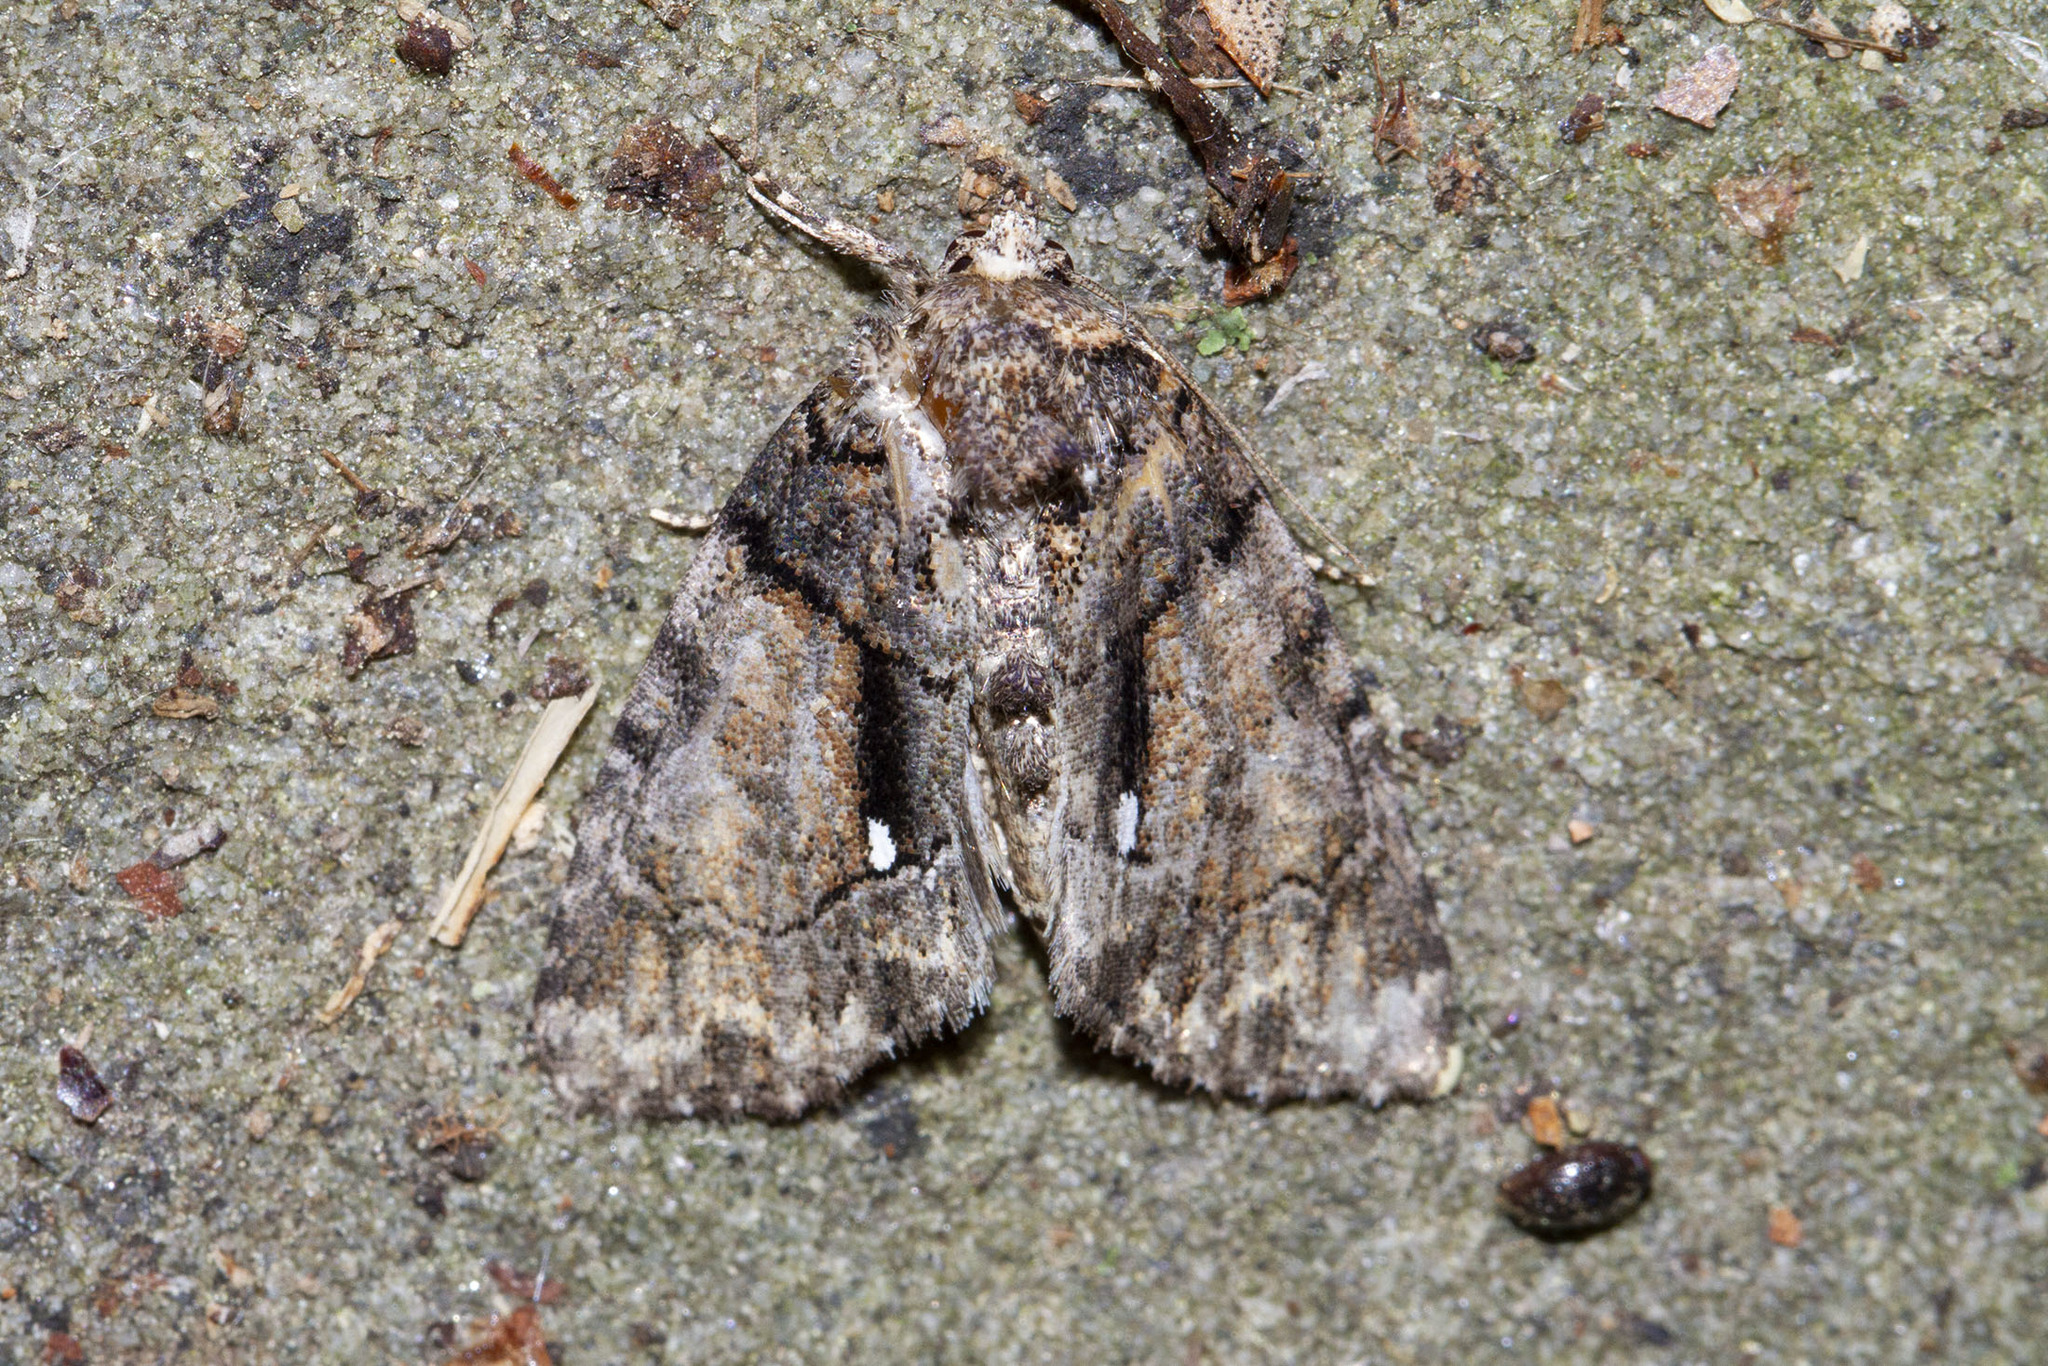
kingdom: Animalia
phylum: Arthropoda
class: Insecta
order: Lepidoptera
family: Noctuidae
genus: Chytonix
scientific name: Chytonix palliatricula
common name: Cloaked marvel
